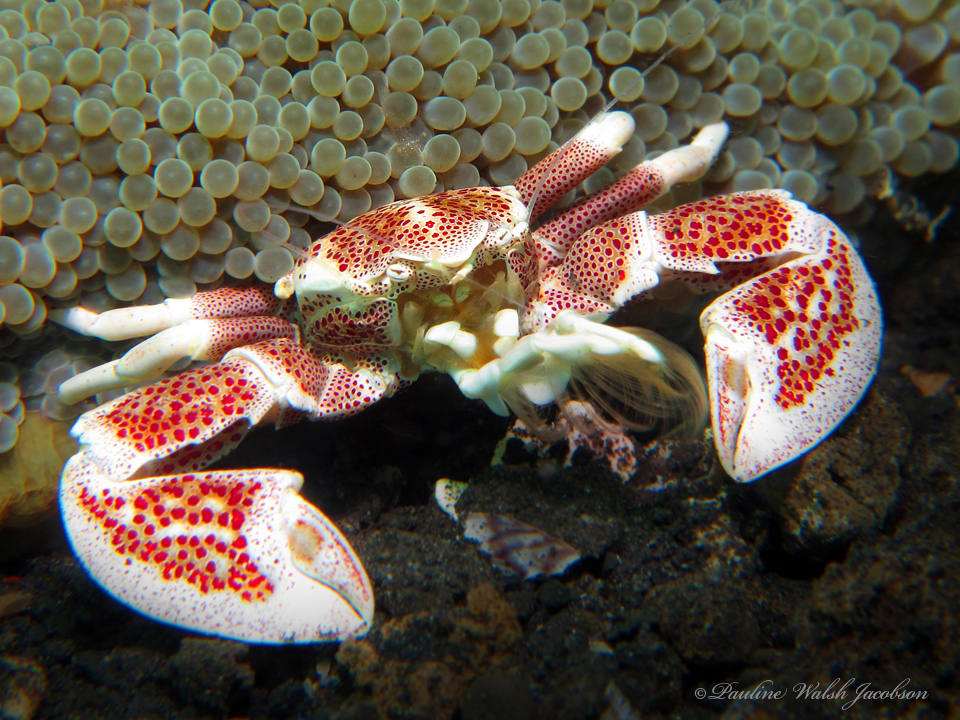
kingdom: Animalia
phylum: Arthropoda
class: Malacostraca
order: Decapoda
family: Porcellanidae
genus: Neopetrolisthes
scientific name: Neopetrolisthes maculatus
